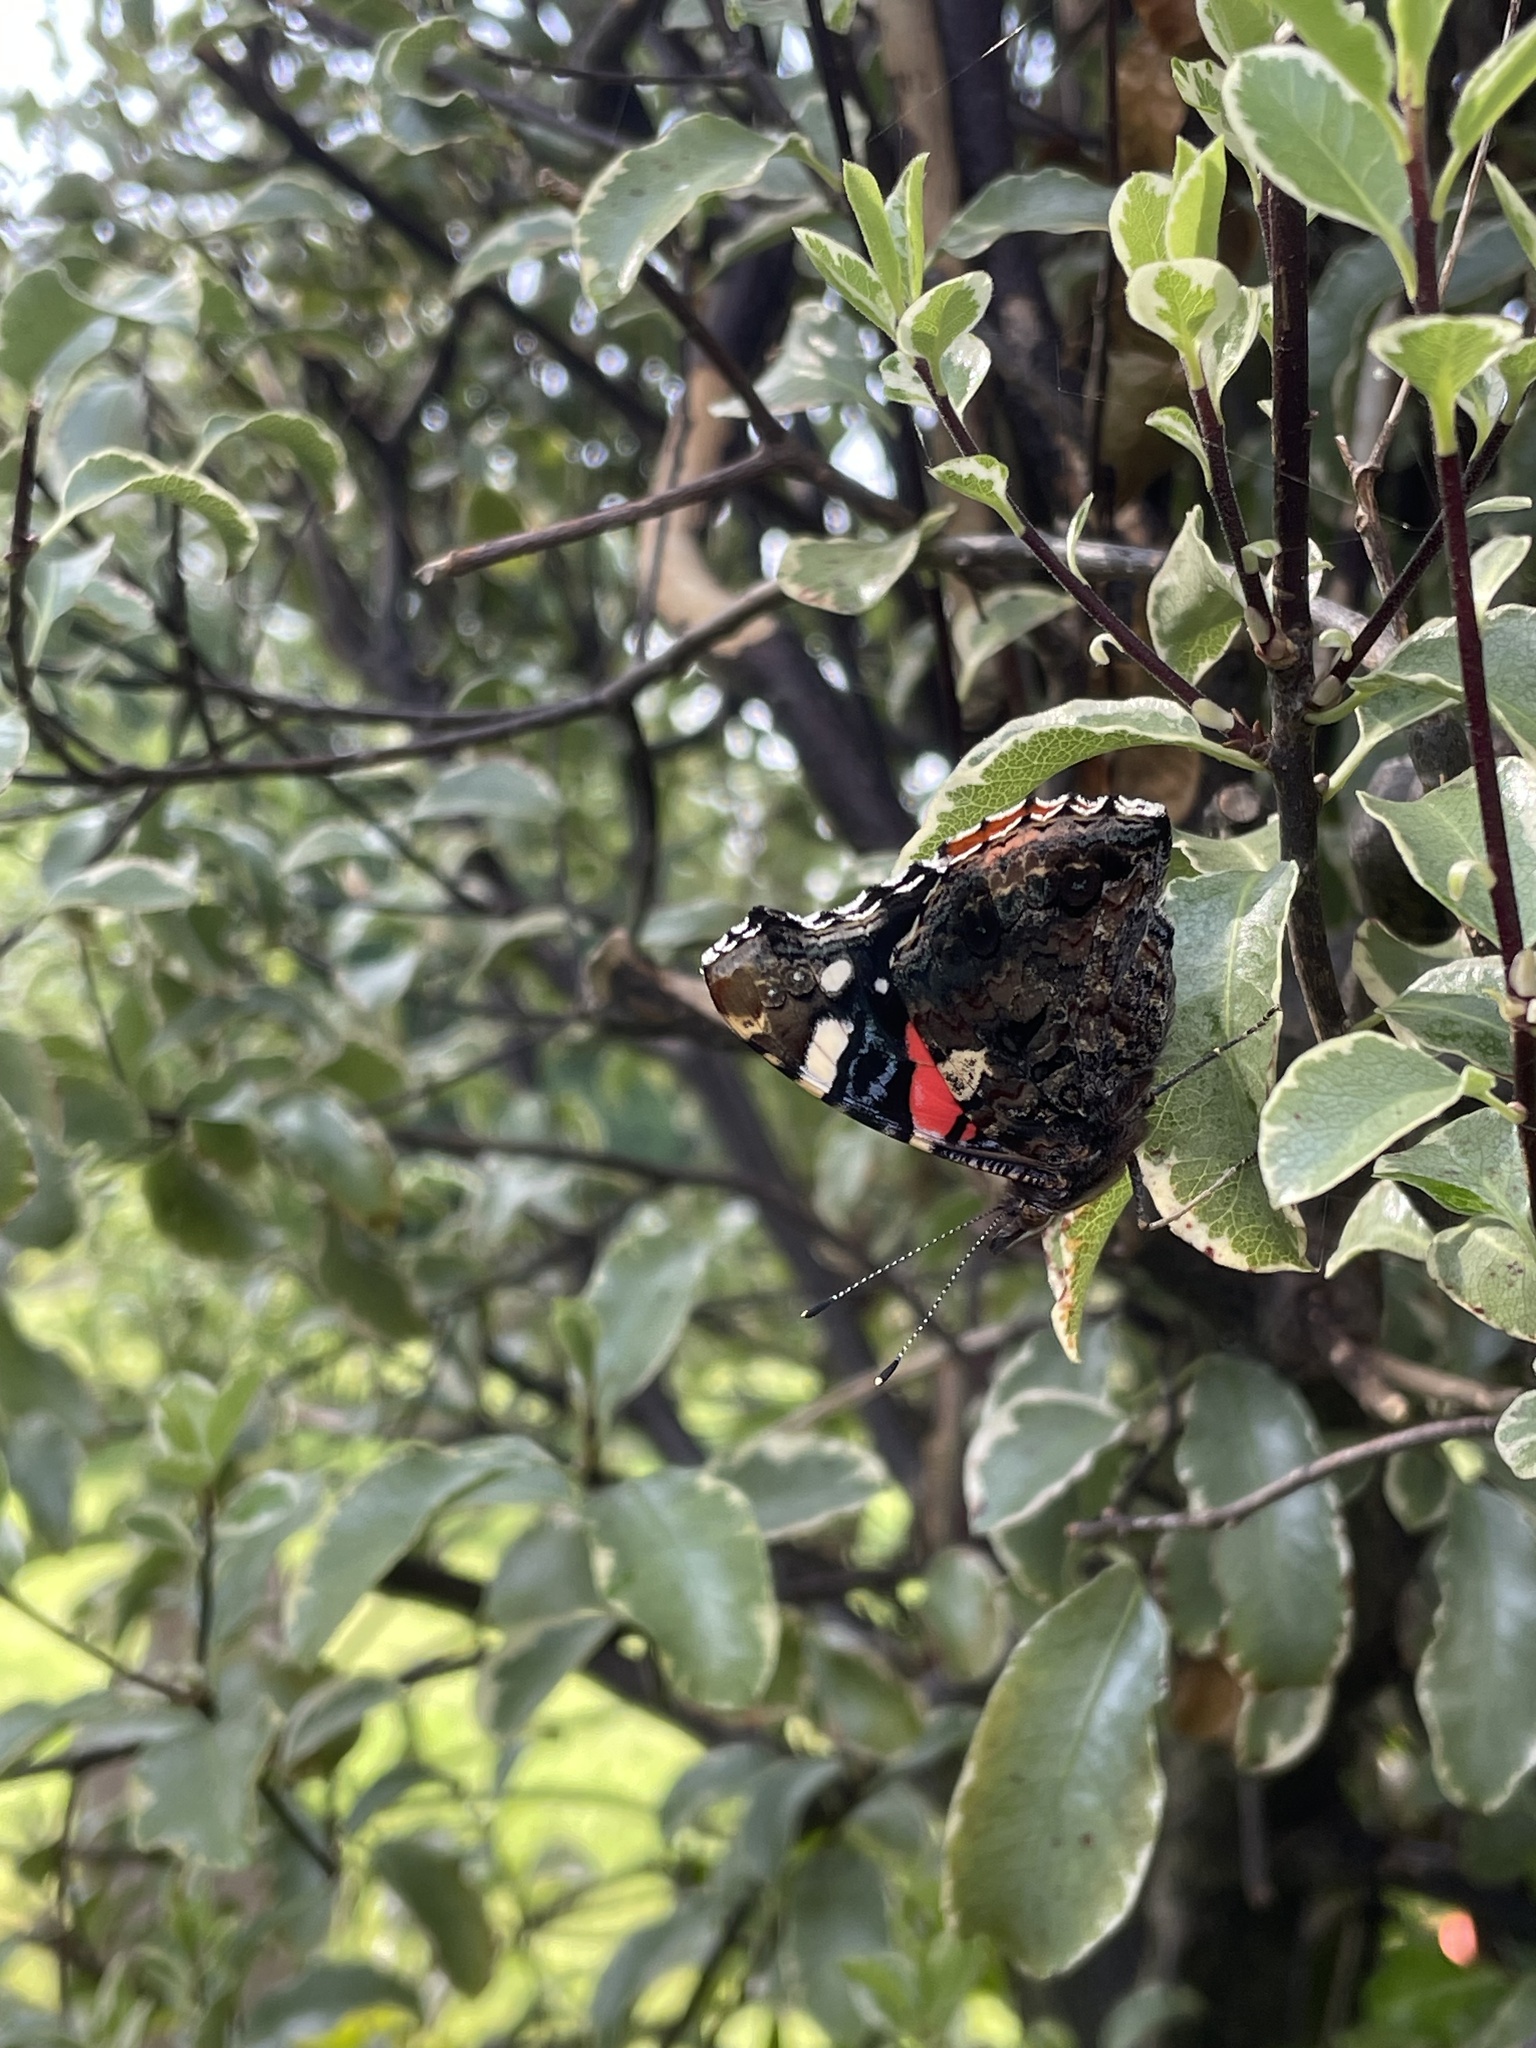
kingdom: Animalia
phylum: Arthropoda
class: Insecta
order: Lepidoptera
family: Nymphalidae
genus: Vanessa
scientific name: Vanessa atalanta
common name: Red admiral
